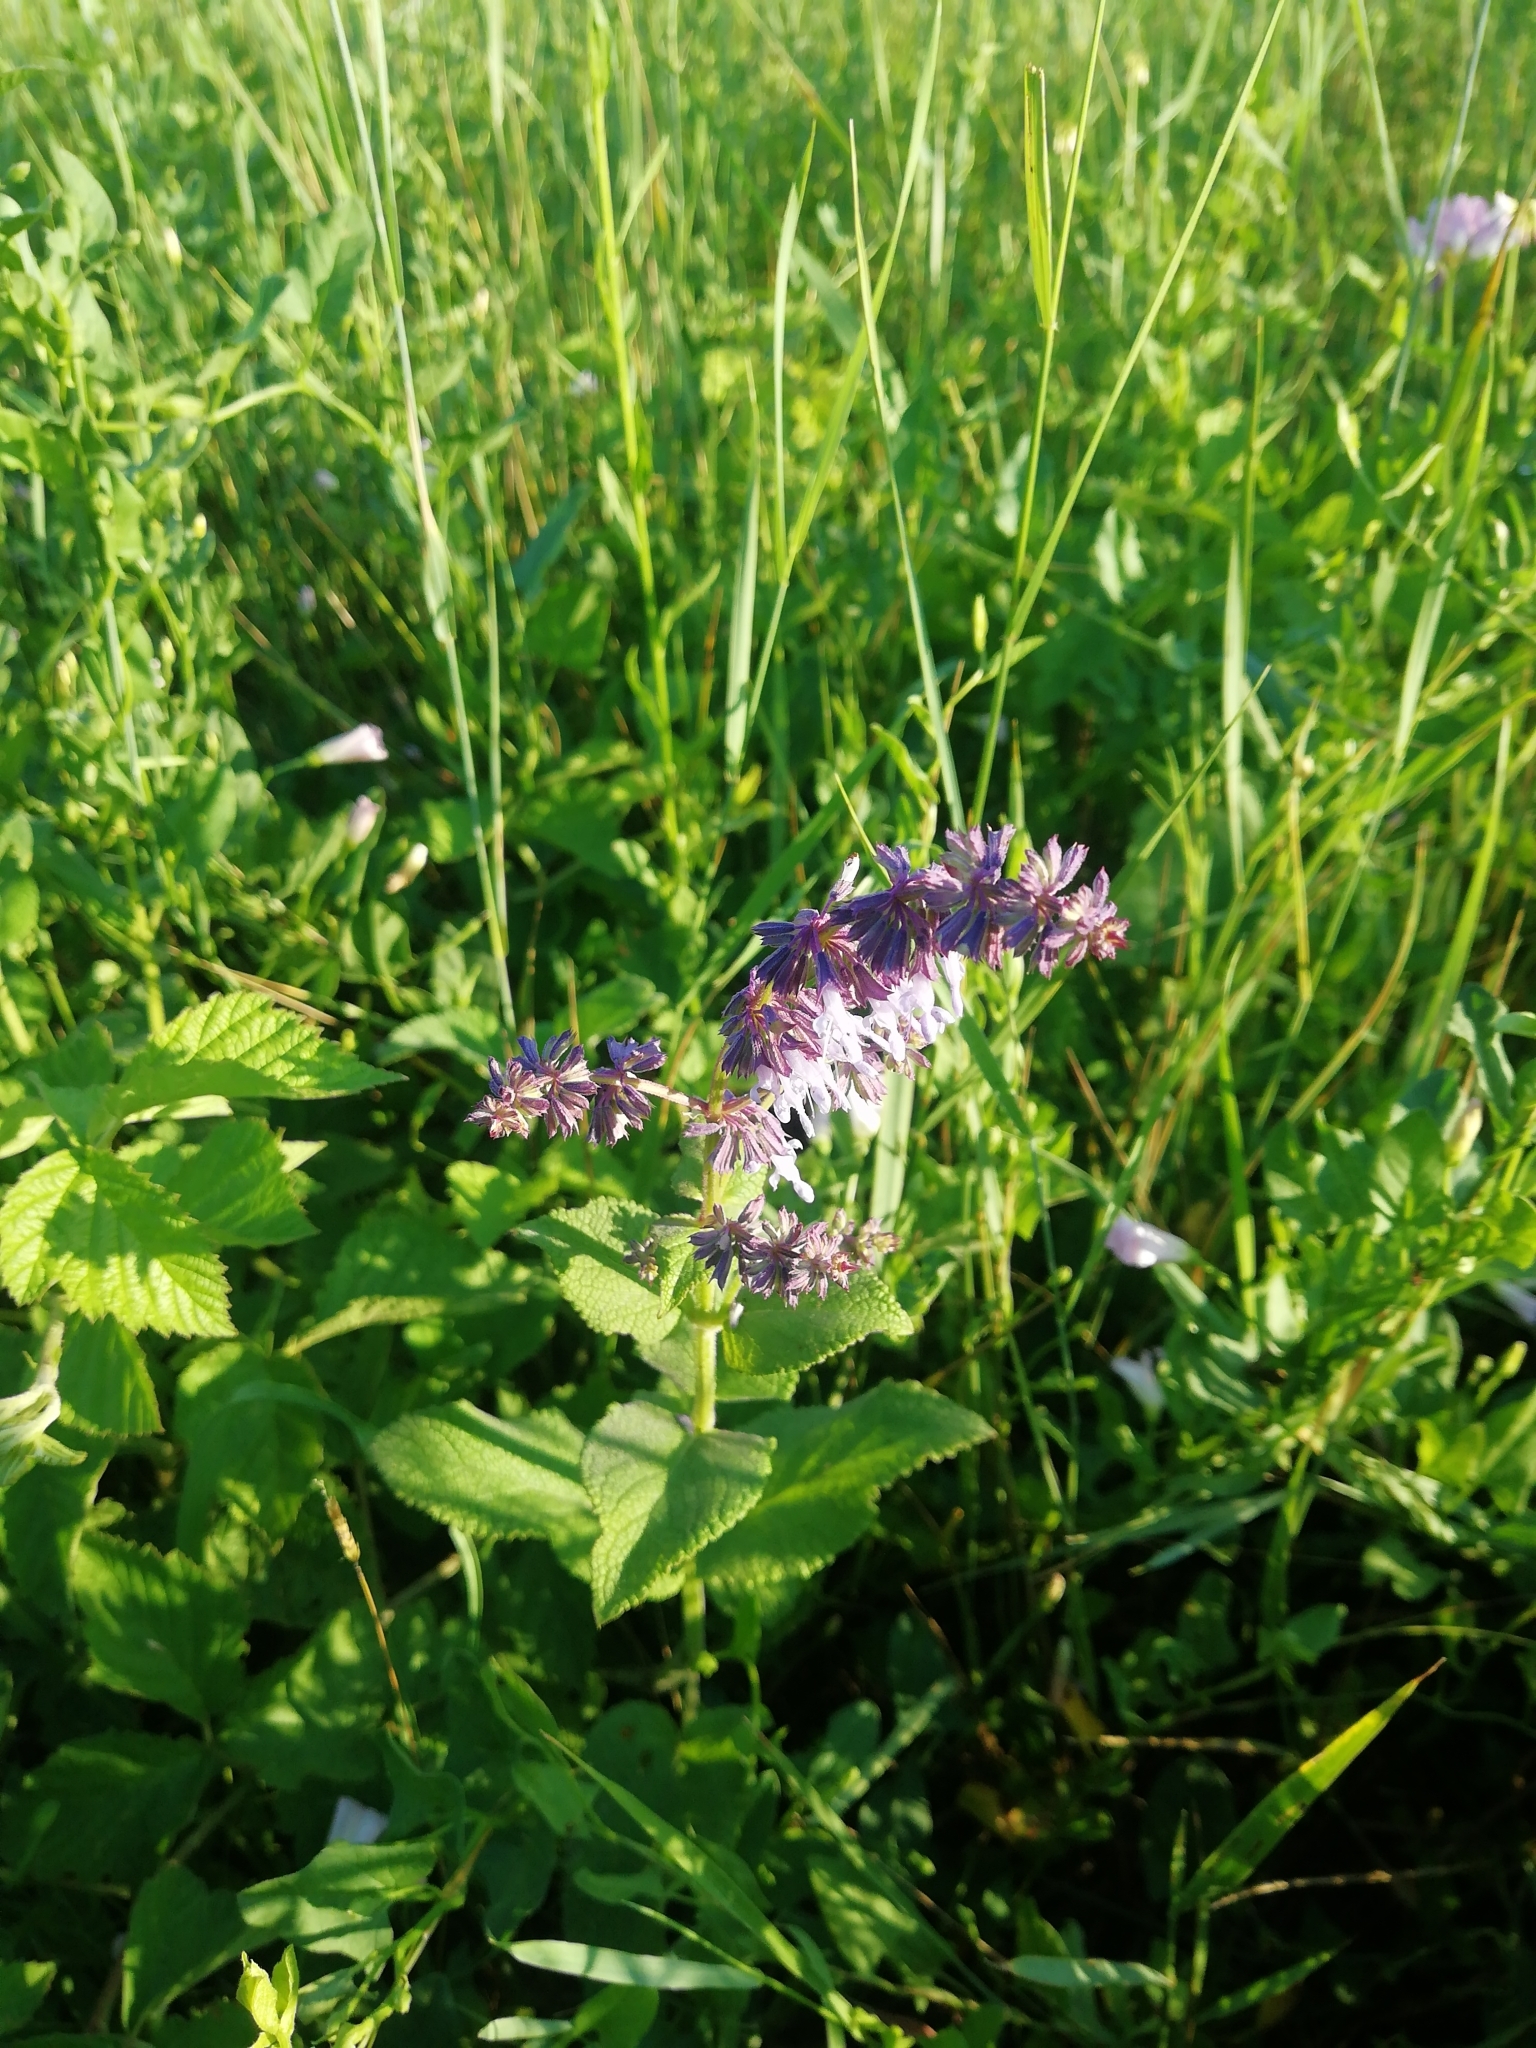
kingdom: Plantae
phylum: Tracheophyta
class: Magnoliopsida
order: Lamiales
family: Lamiaceae
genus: Salvia
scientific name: Salvia verticillata
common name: Whorled clary
